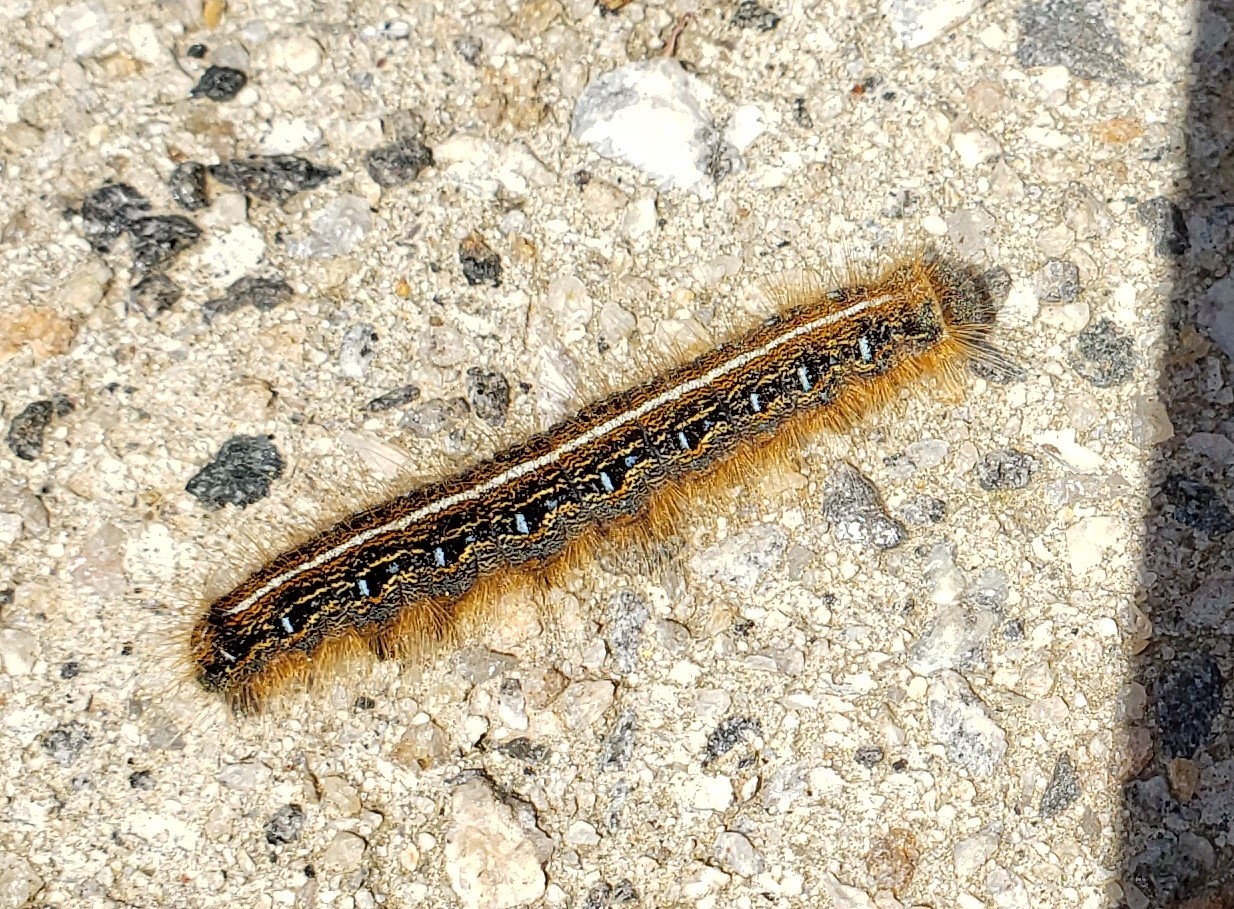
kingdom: Animalia
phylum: Arthropoda
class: Insecta
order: Lepidoptera
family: Lasiocampidae
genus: Malacosoma
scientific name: Malacosoma americana
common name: Eastern tent caterpillar moth
